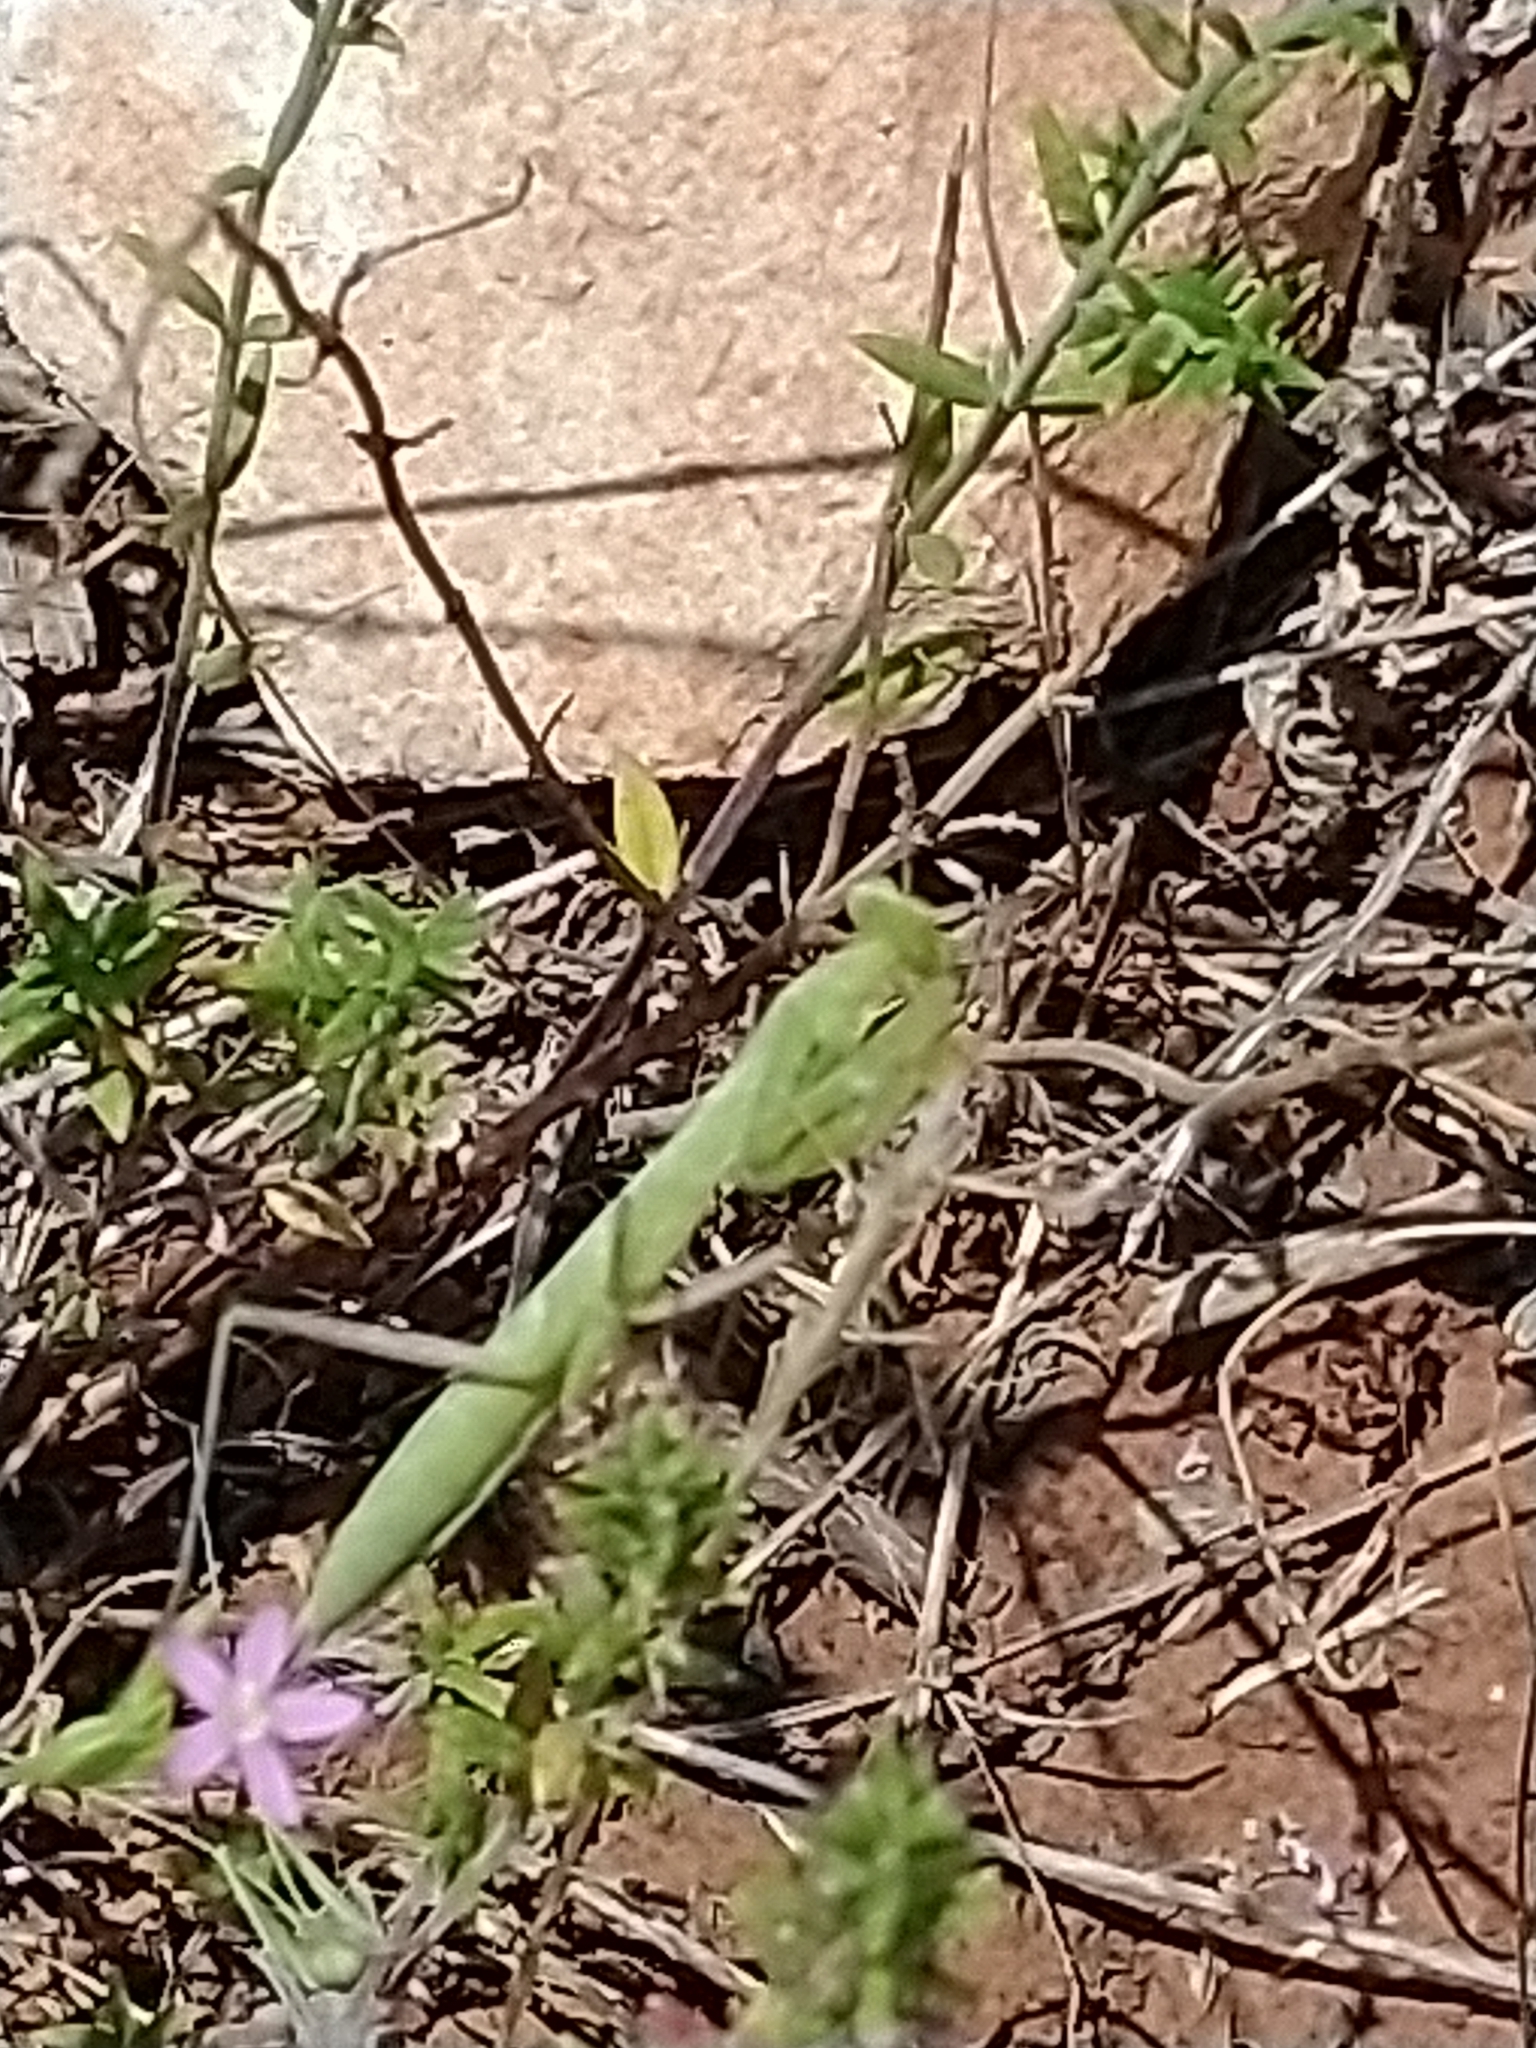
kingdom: Animalia
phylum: Arthropoda
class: Insecta
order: Mantodea
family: Mantidae
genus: Mantis
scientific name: Mantis religiosa
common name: Praying mantis
